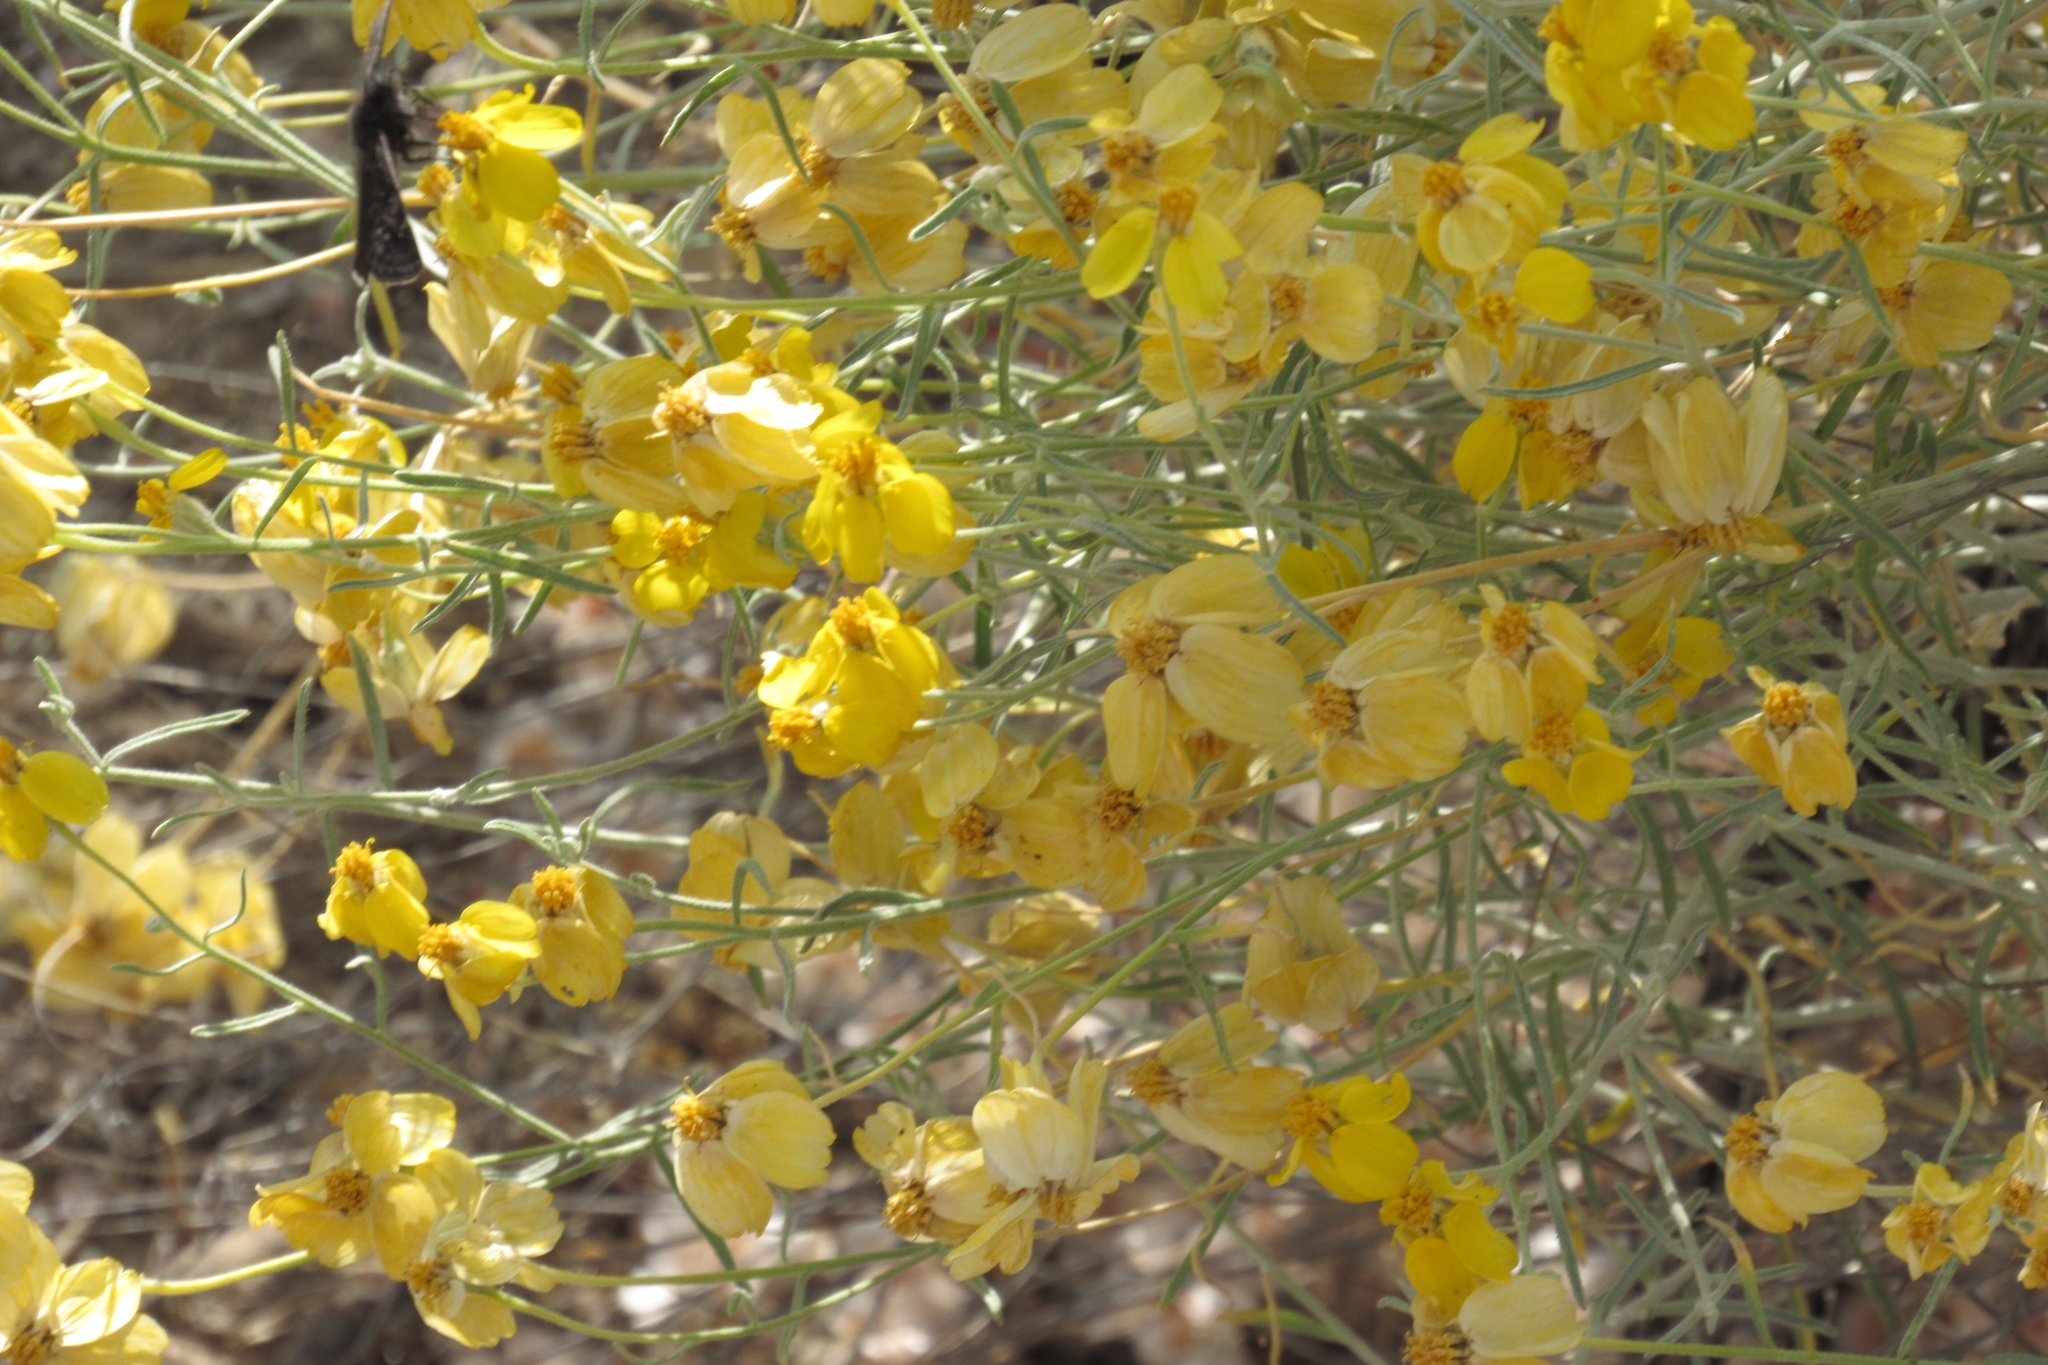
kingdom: Plantae
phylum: Tracheophyta
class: Magnoliopsida
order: Asterales
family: Asteraceae
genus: Psilostrophe
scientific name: Psilostrophe cooperi
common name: White-stem paper-flower
